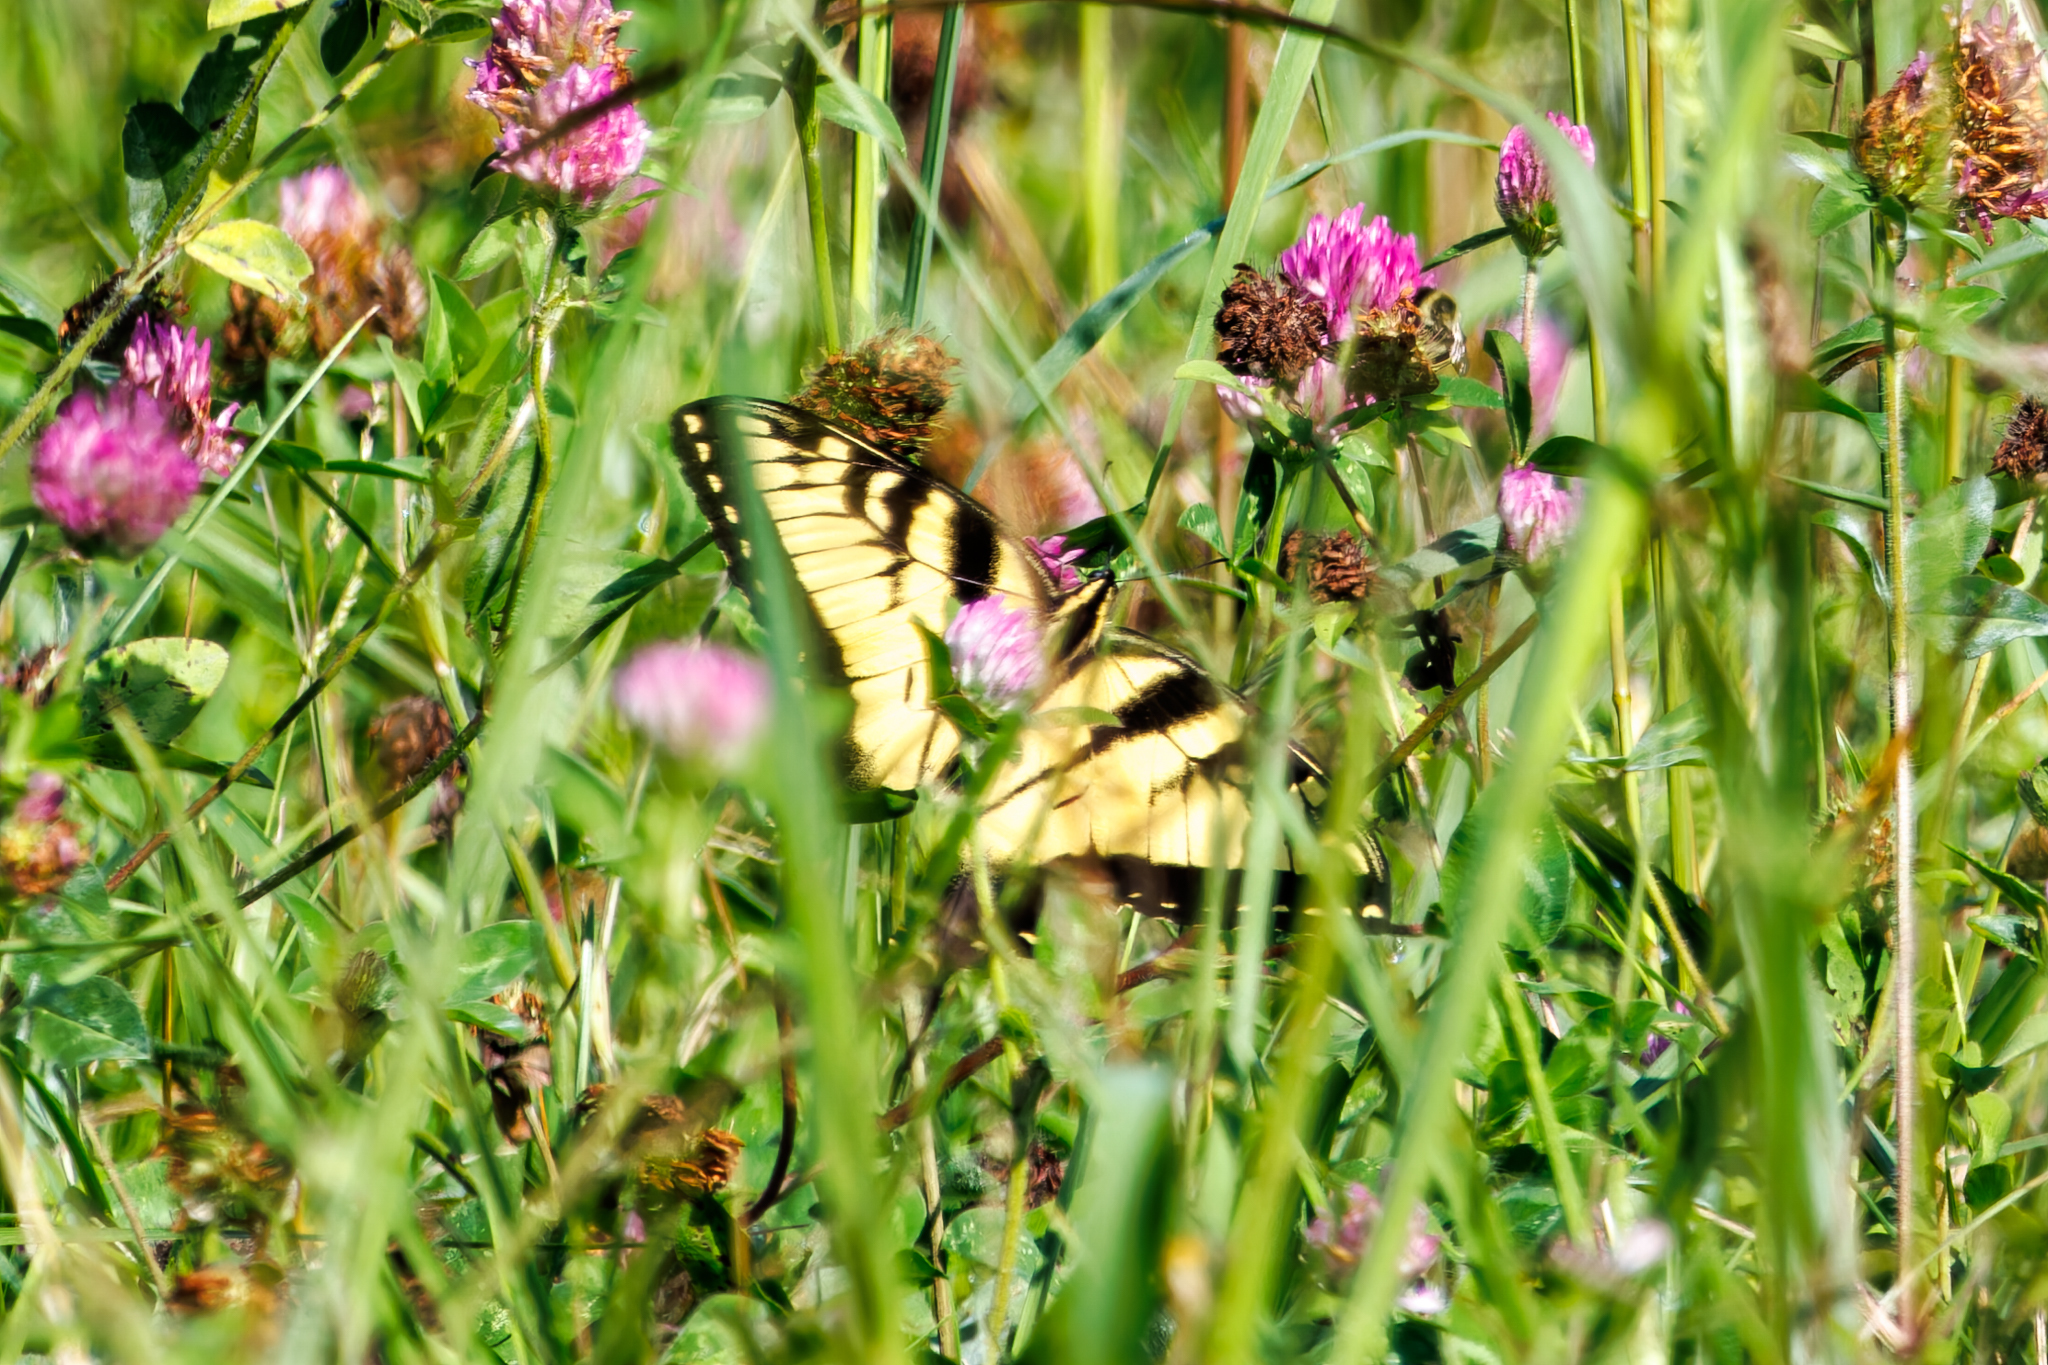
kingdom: Animalia
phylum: Arthropoda
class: Insecta
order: Lepidoptera
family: Papilionidae
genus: Papilio
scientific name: Papilio glaucus
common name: Tiger swallowtail
